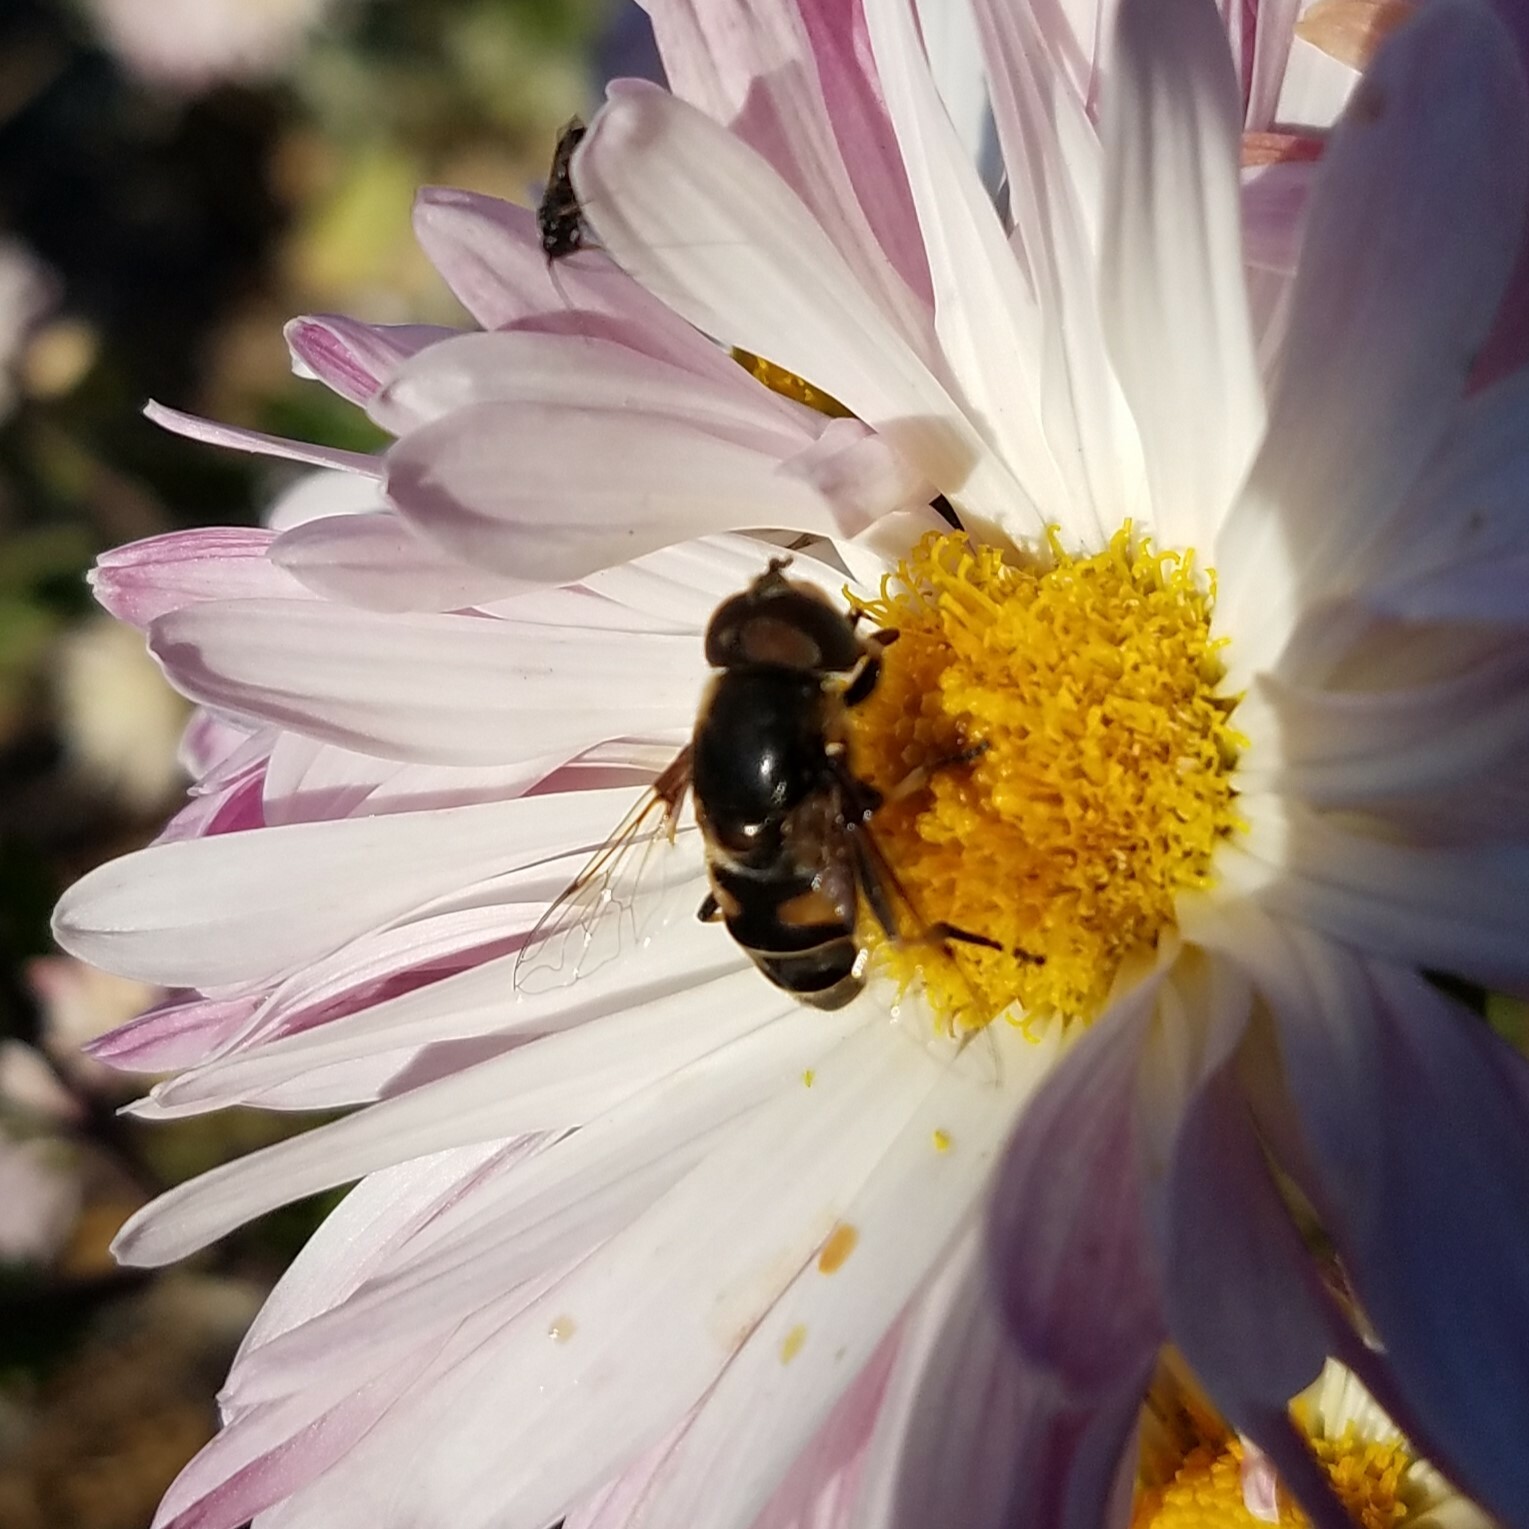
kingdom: Animalia
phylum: Arthropoda
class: Insecta
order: Diptera
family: Syrphidae
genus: Eristalis
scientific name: Eristalis dimidiata
